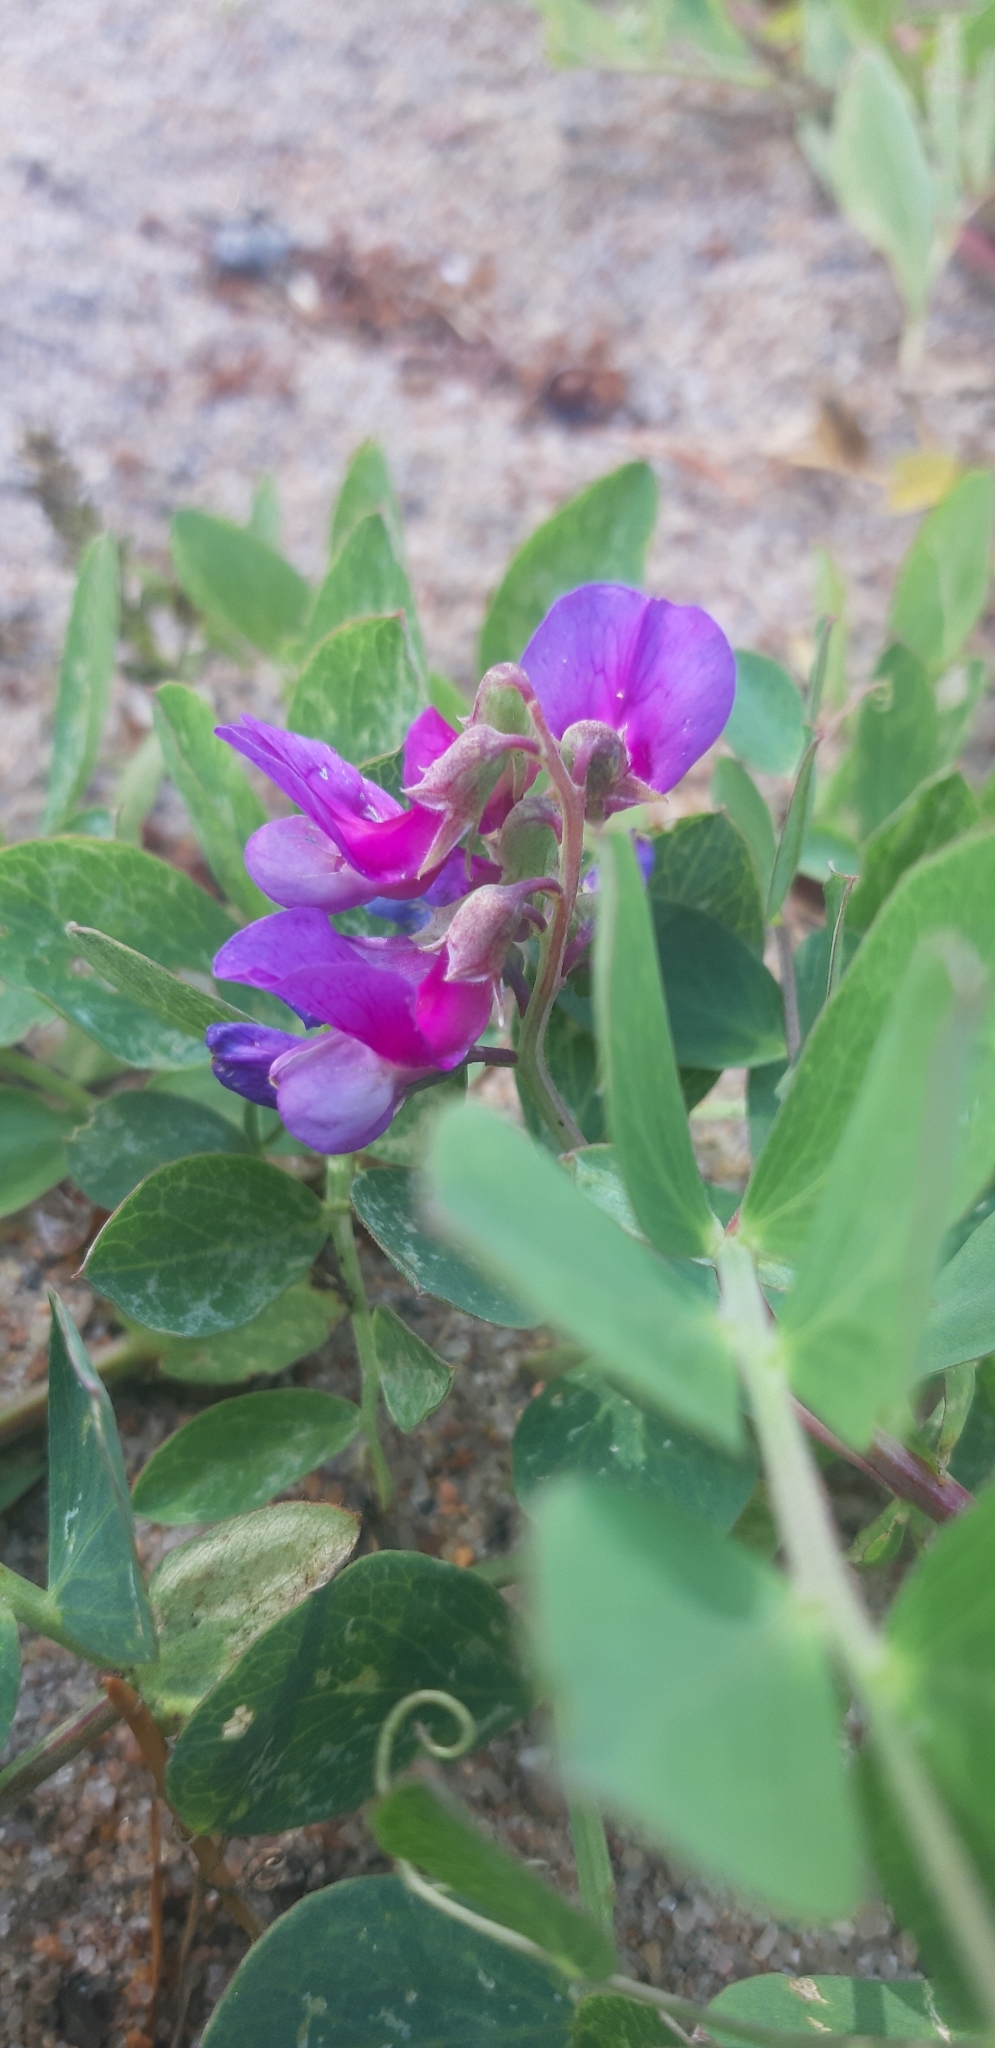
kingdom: Plantae
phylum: Tracheophyta
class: Magnoliopsida
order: Fabales
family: Fabaceae
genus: Lathyrus
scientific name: Lathyrus japonicus
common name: Sea pea
